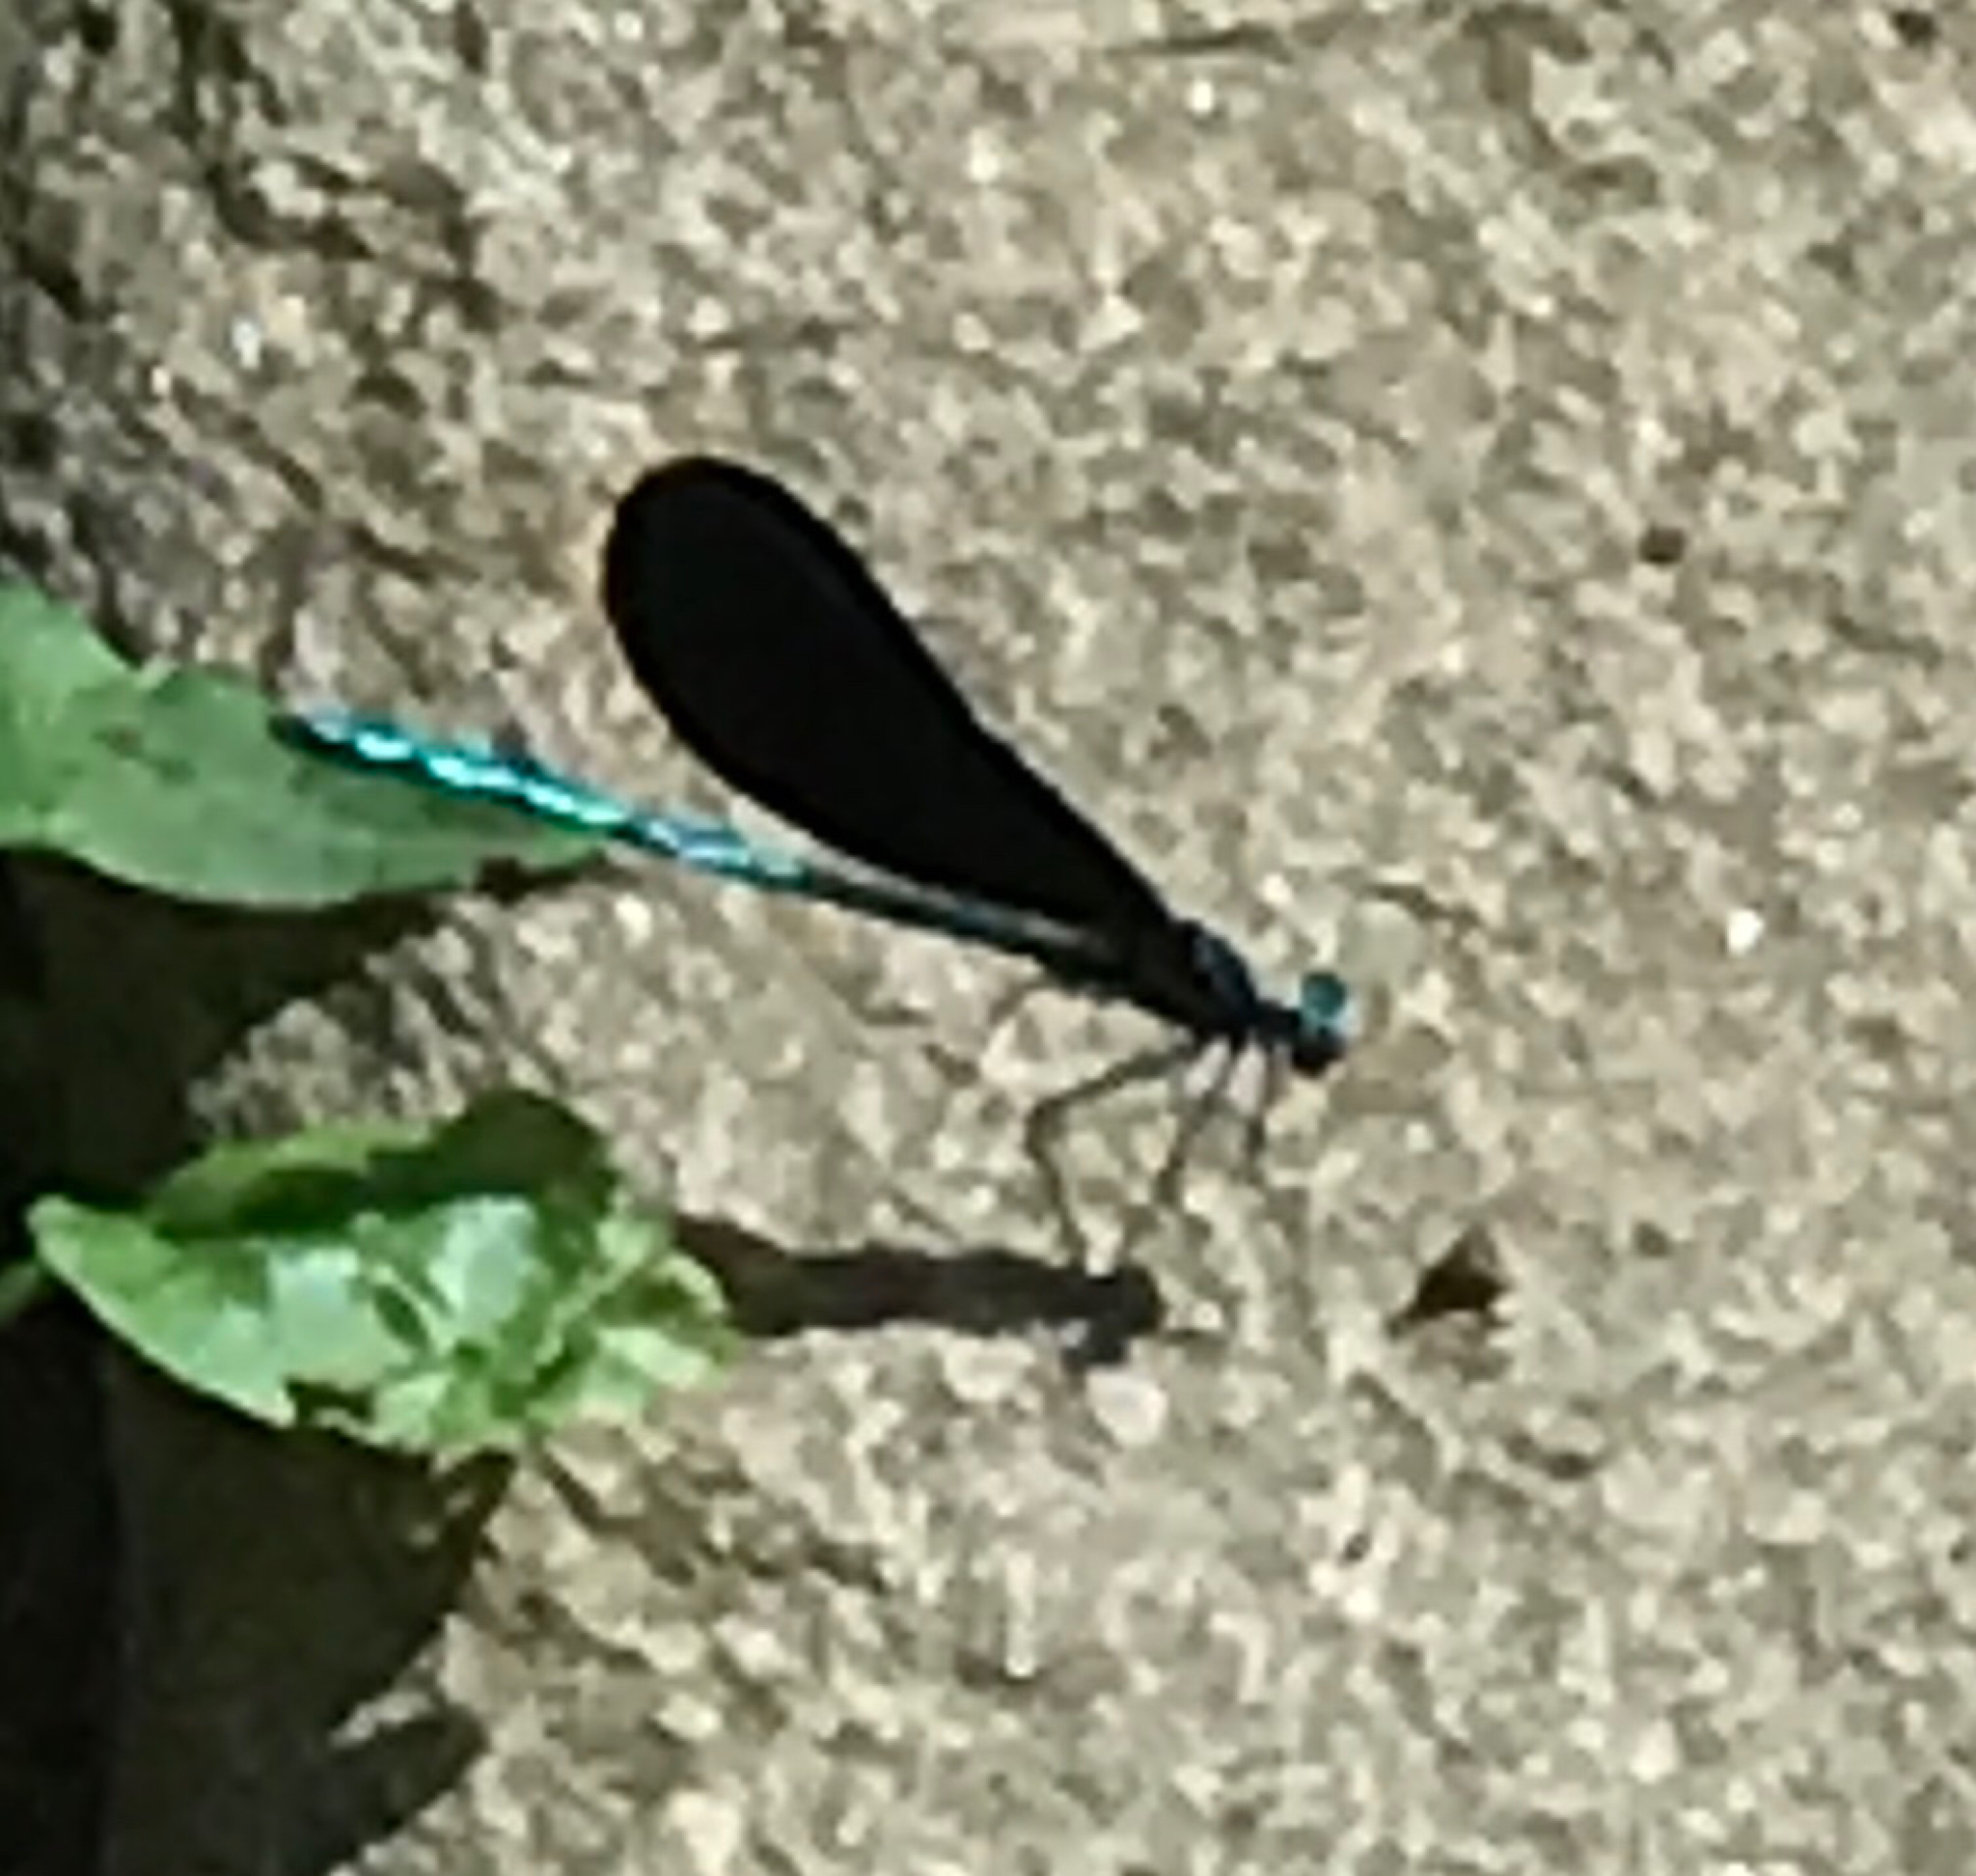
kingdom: Animalia
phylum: Arthropoda
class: Insecta
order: Odonata
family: Calopterygidae
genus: Calopteryx
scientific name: Calopteryx maculata
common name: Ebony jewelwing
